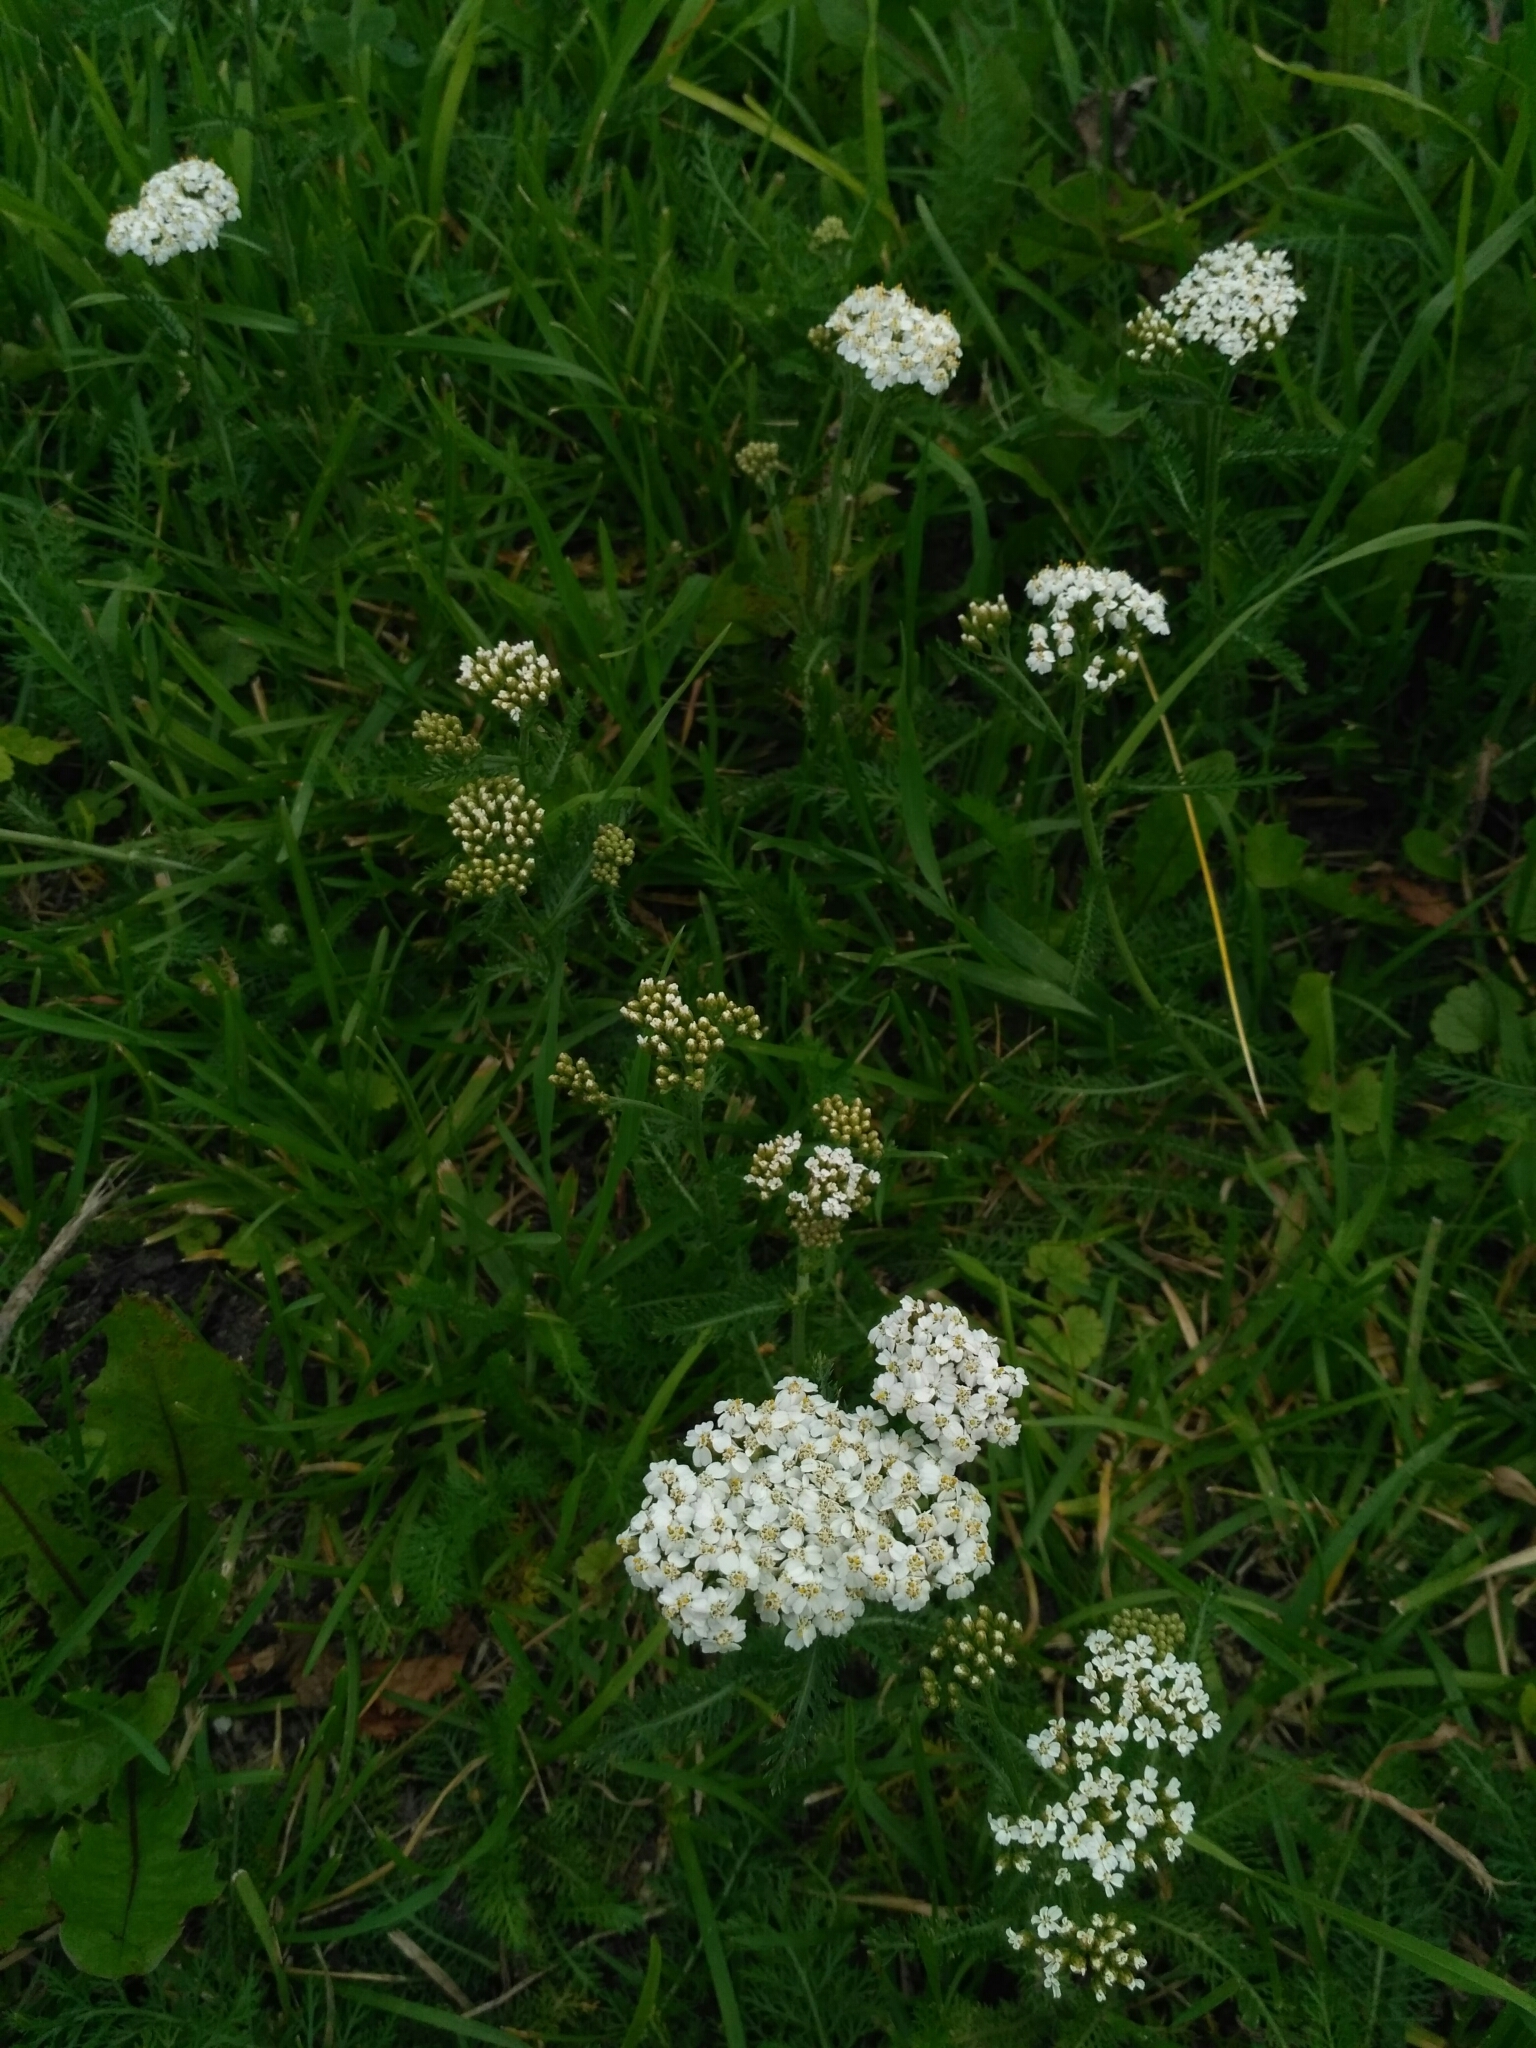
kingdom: Plantae
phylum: Tracheophyta
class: Magnoliopsida
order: Asterales
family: Asteraceae
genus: Achillea
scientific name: Achillea millefolium
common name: Yarrow
